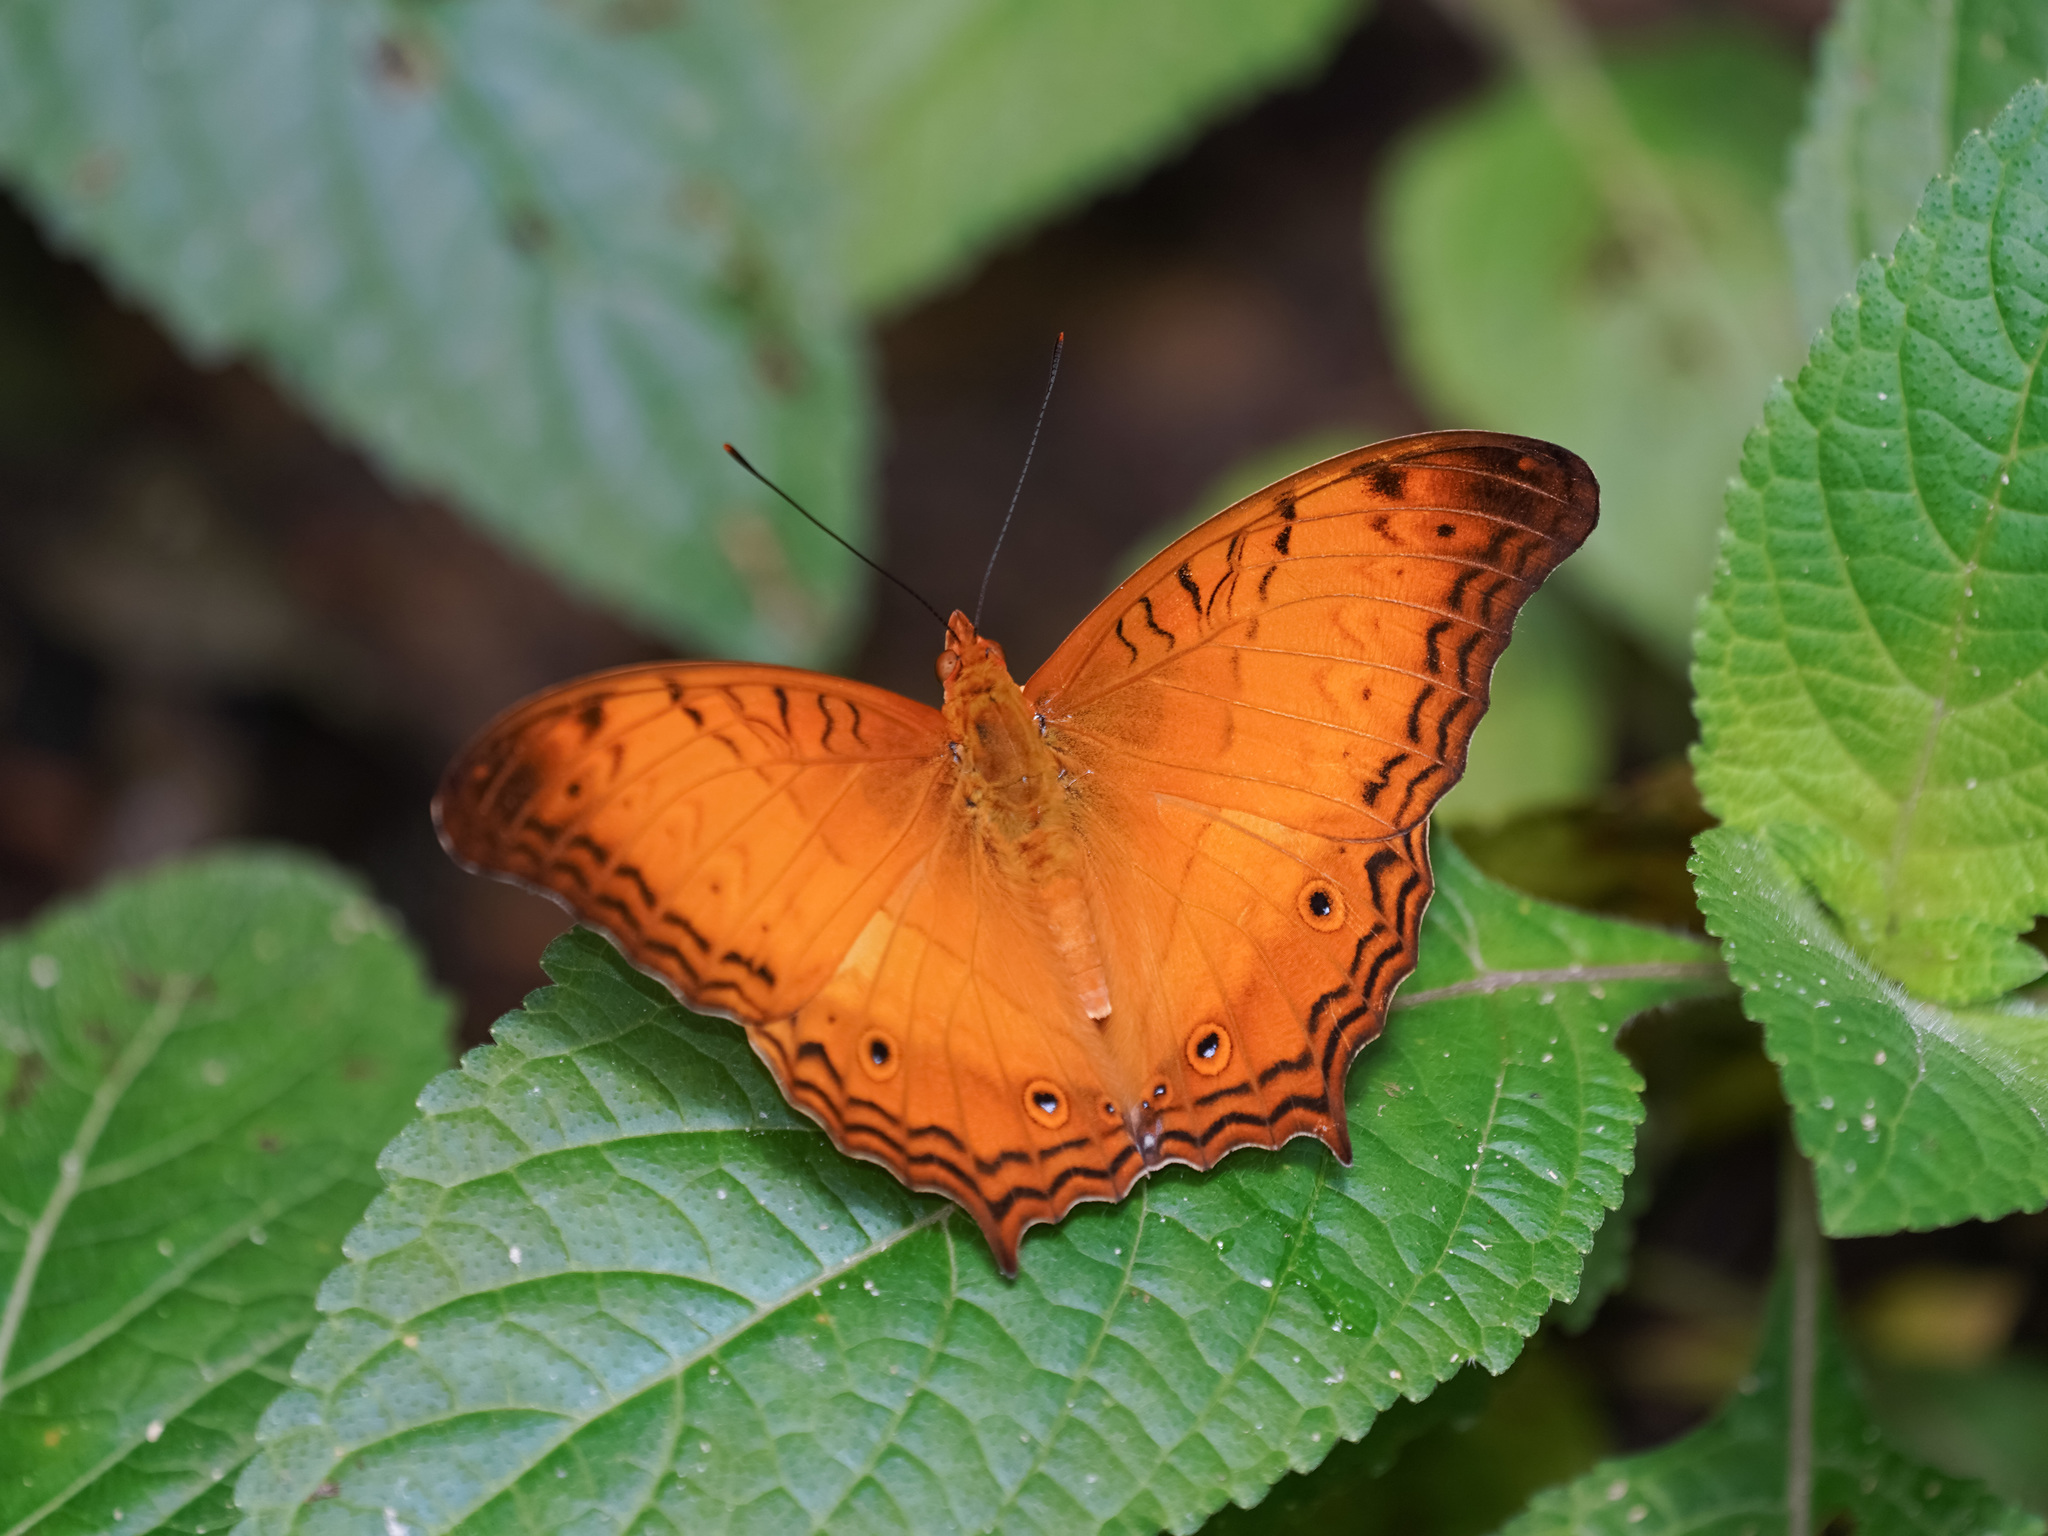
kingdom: Animalia
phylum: Arthropoda
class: Insecta
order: Lepidoptera
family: Nymphalidae
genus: Vindula
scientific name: Vindula deione
